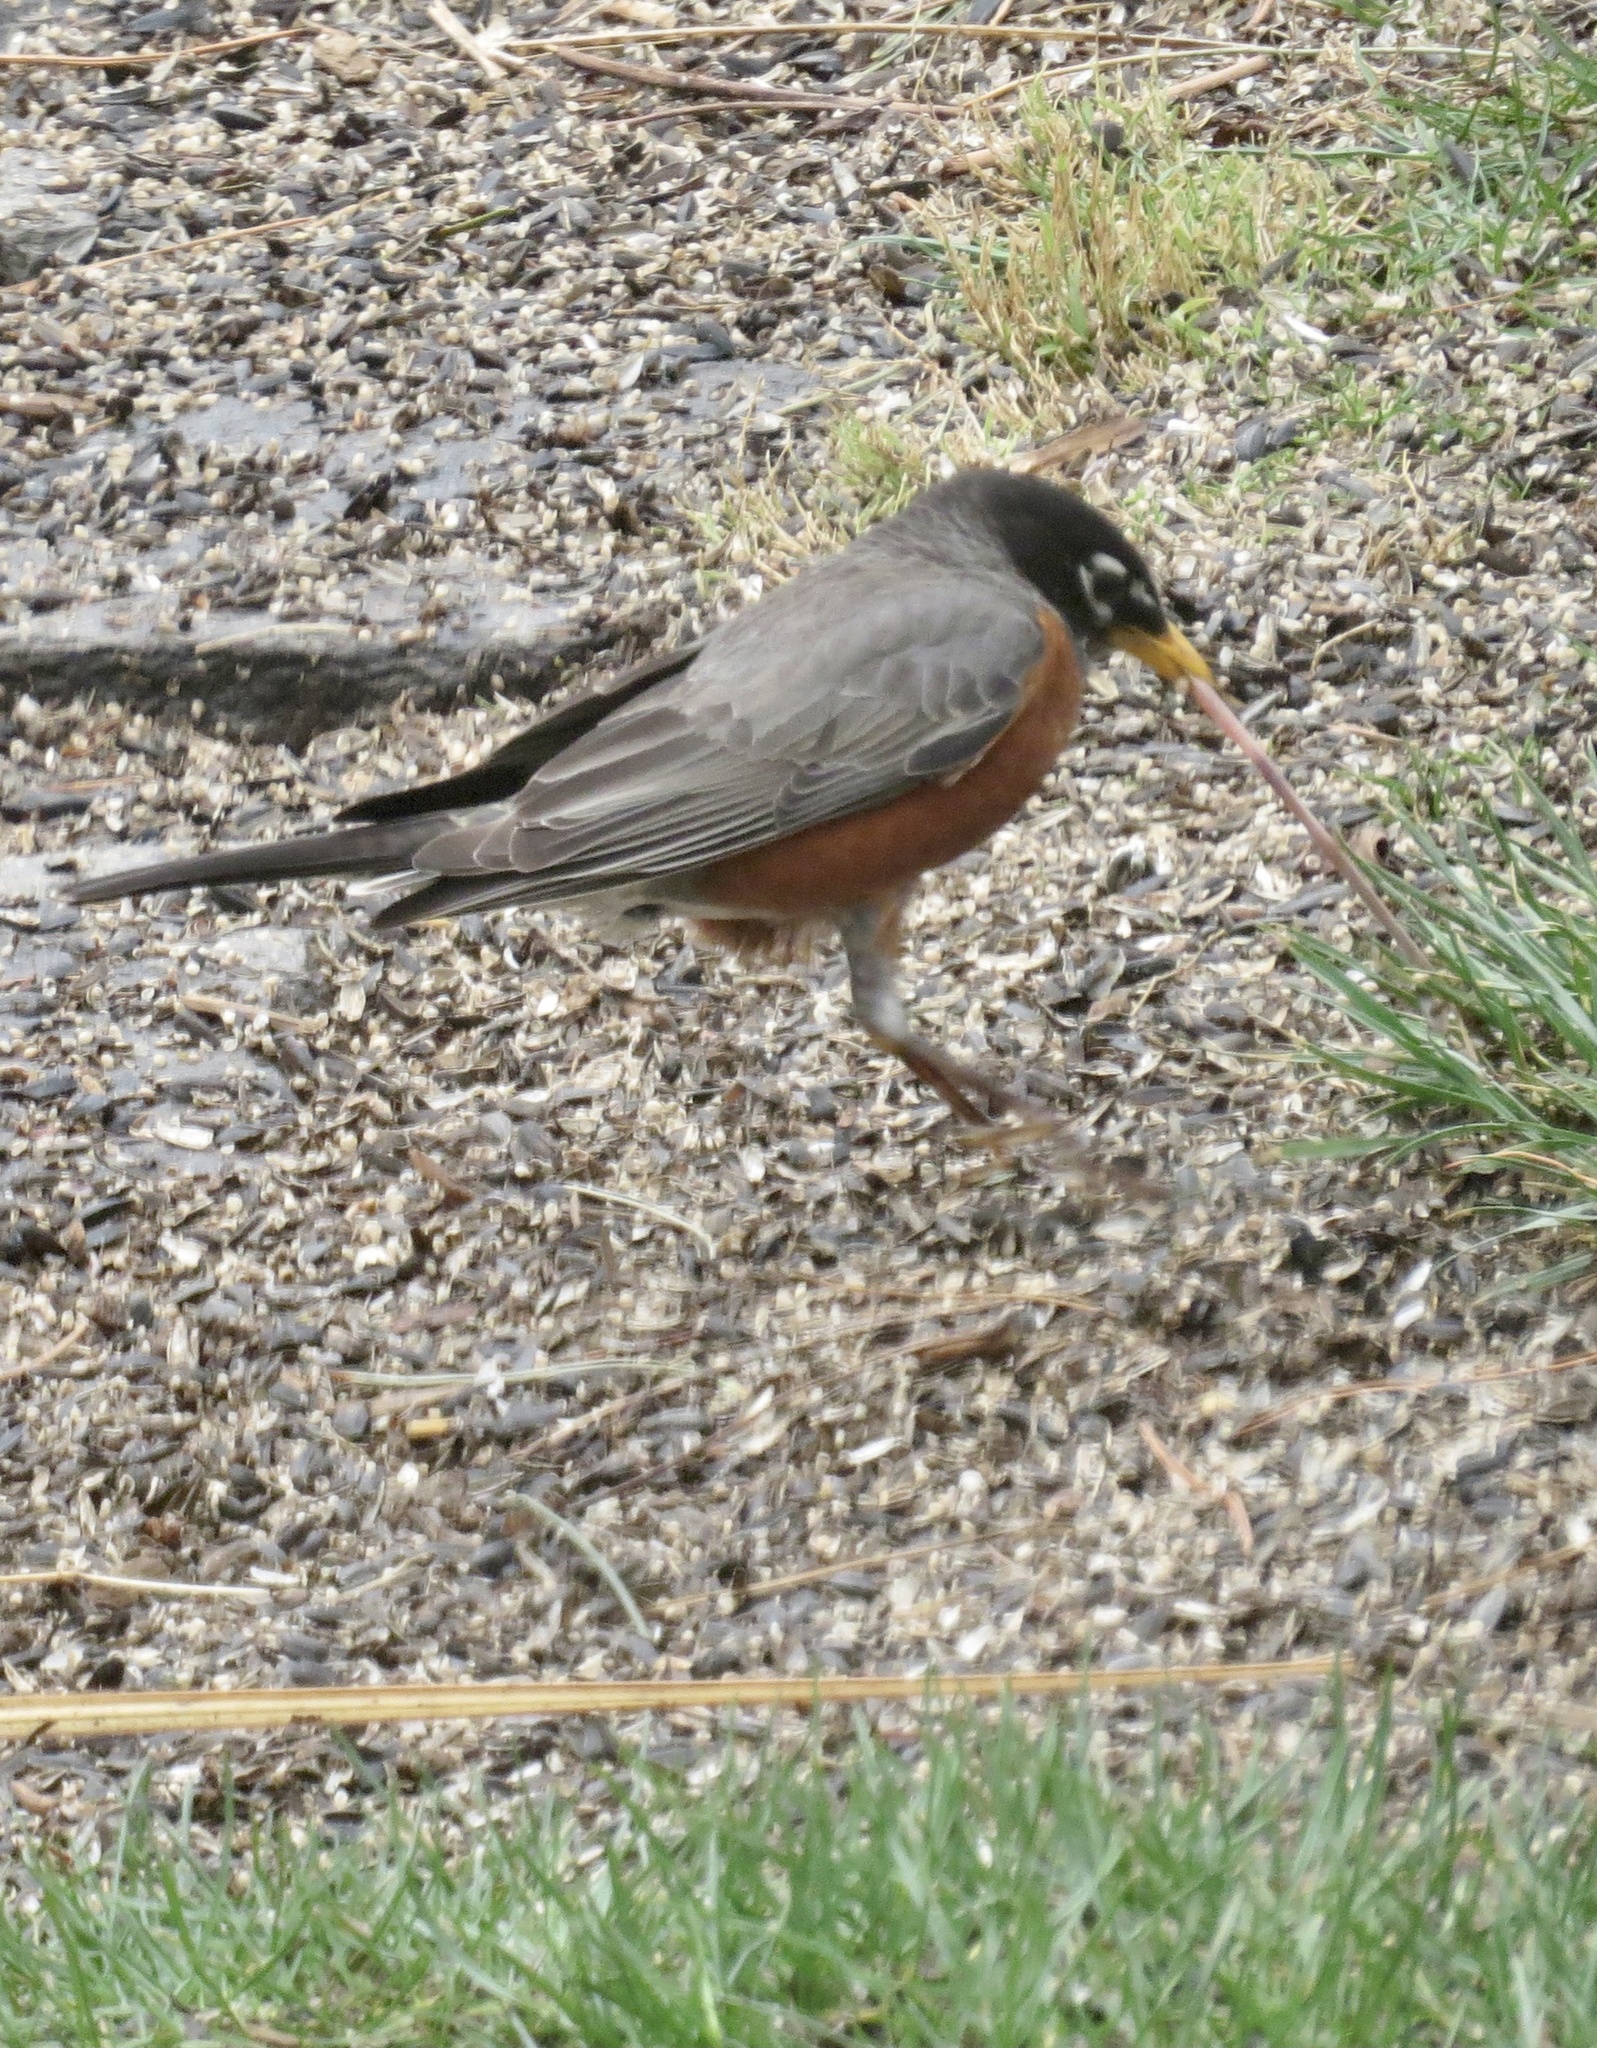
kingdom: Animalia
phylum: Chordata
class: Aves
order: Passeriformes
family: Turdidae
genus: Turdus
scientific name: Turdus migratorius
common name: American robin
